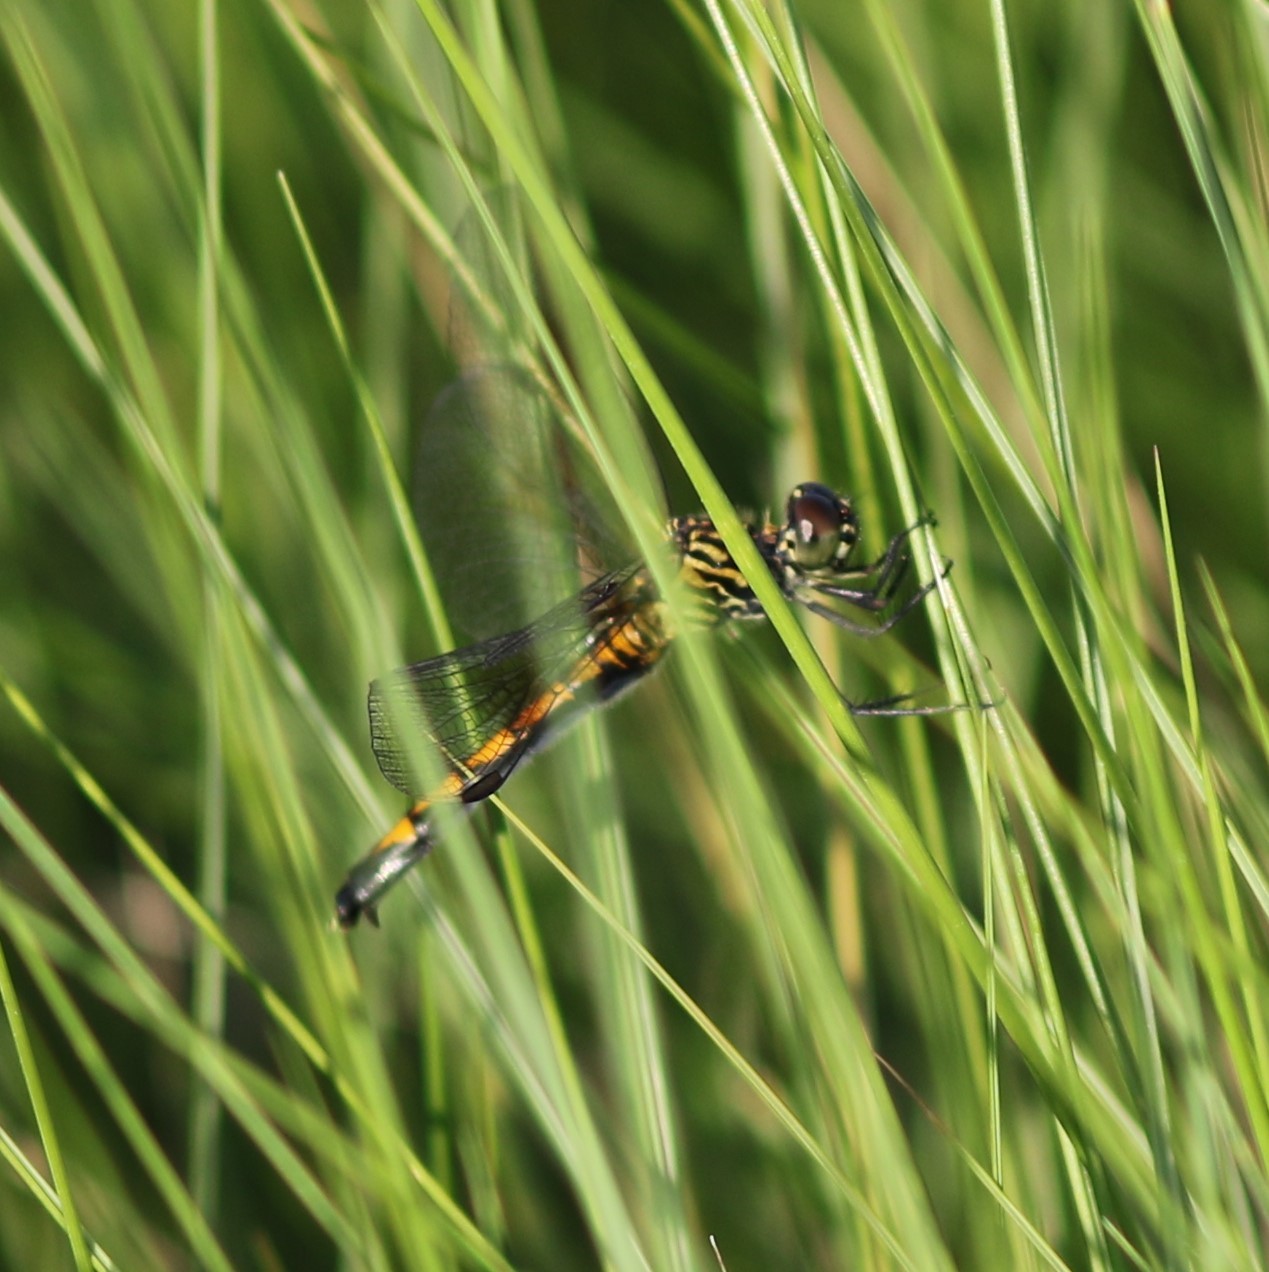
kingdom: Animalia
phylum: Arthropoda
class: Insecta
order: Odonata
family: Libellulidae
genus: Erythrodiplax
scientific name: Erythrodiplax berenice
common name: Seaside dragonlet
